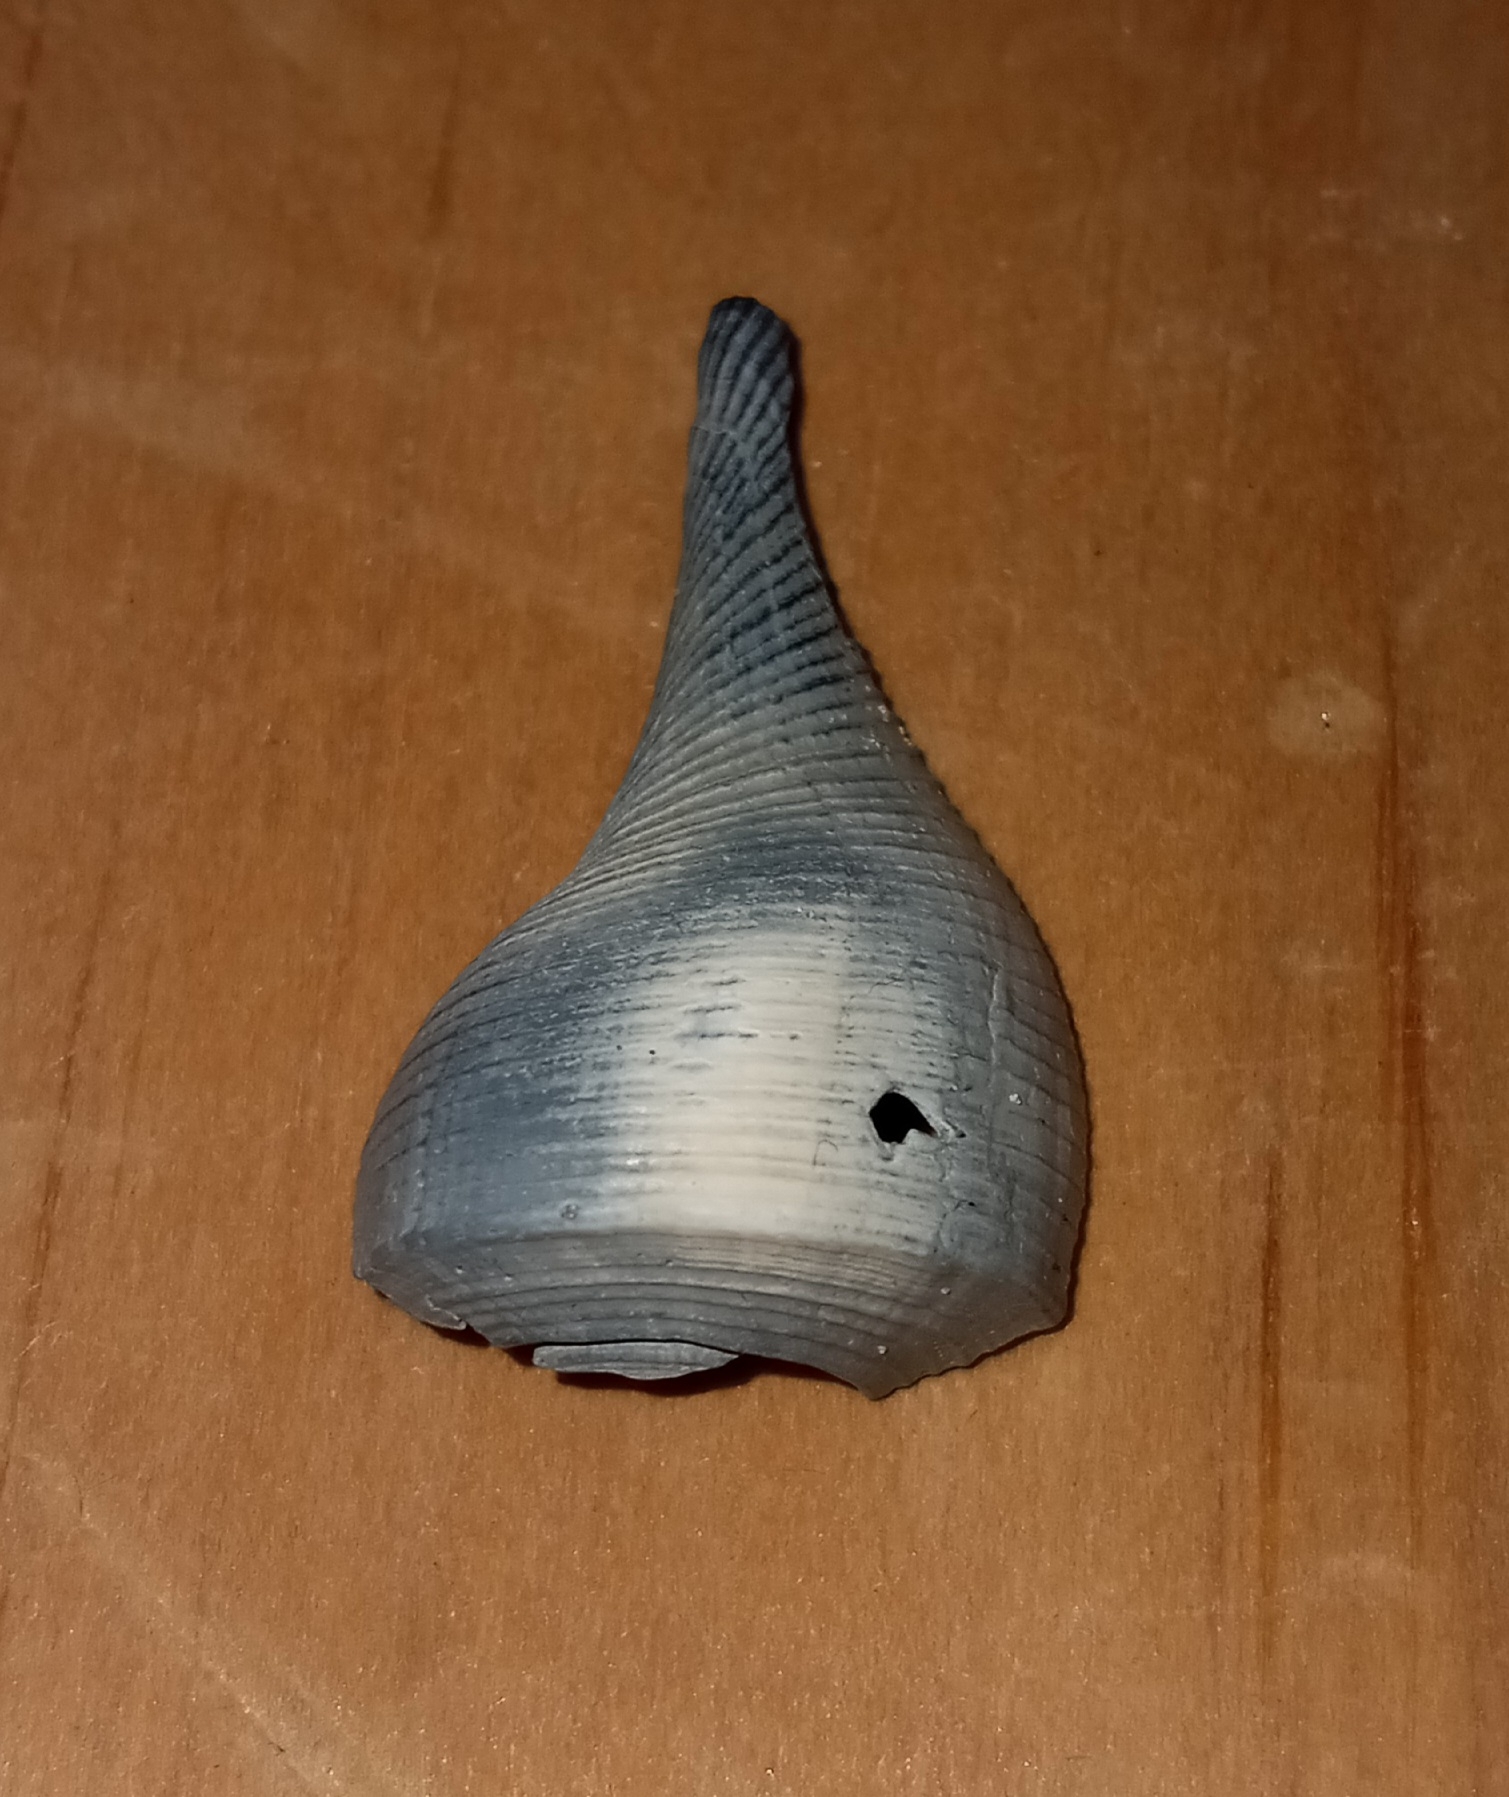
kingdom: Animalia
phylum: Mollusca
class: Gastropoda
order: Neogastropoda
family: Busyconidae
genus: Fulguropsis
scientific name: Fulguropsis pyruloides
